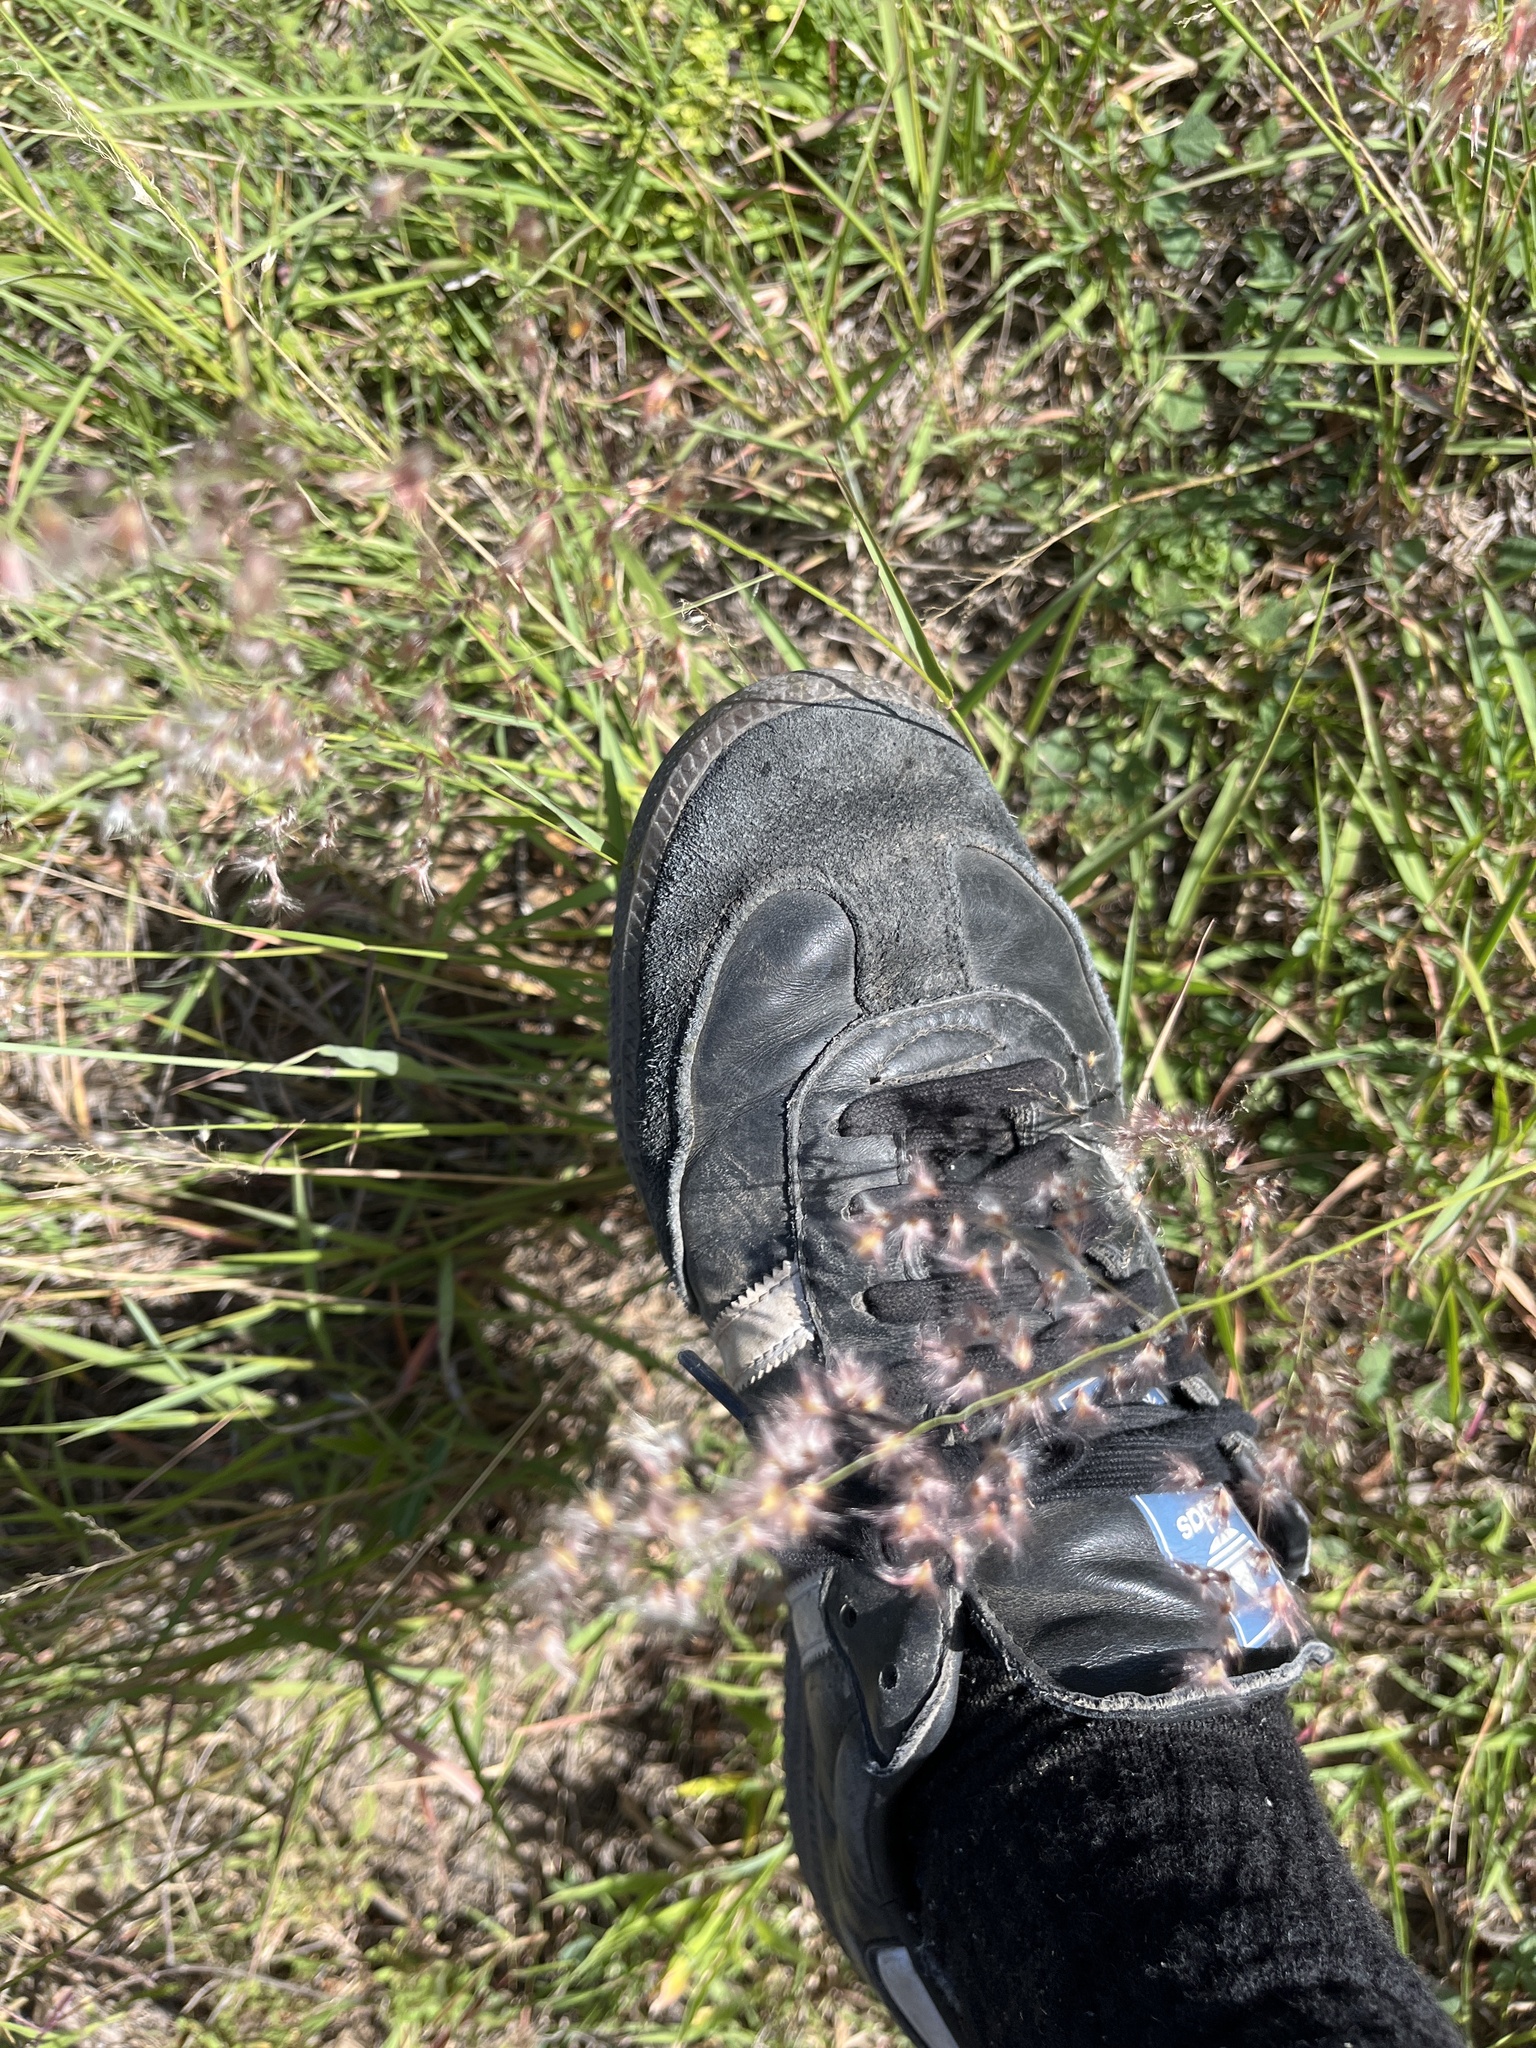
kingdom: Plantae
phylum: Tracheophyta
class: Liliopsida
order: Poales
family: Poaceae
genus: Melinis
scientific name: Melinis repens
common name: Rose natal grass
